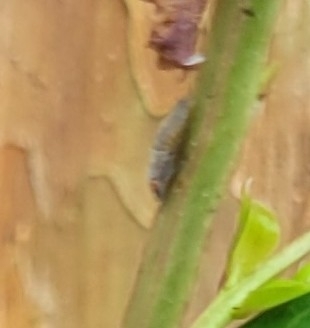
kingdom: Animalia
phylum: Arthropoda
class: Insecta
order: Hemiptera
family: Cicadellidae
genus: Homalodisca
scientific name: Homalodisca vitripennis
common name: Glassy-winged sharpshooter
